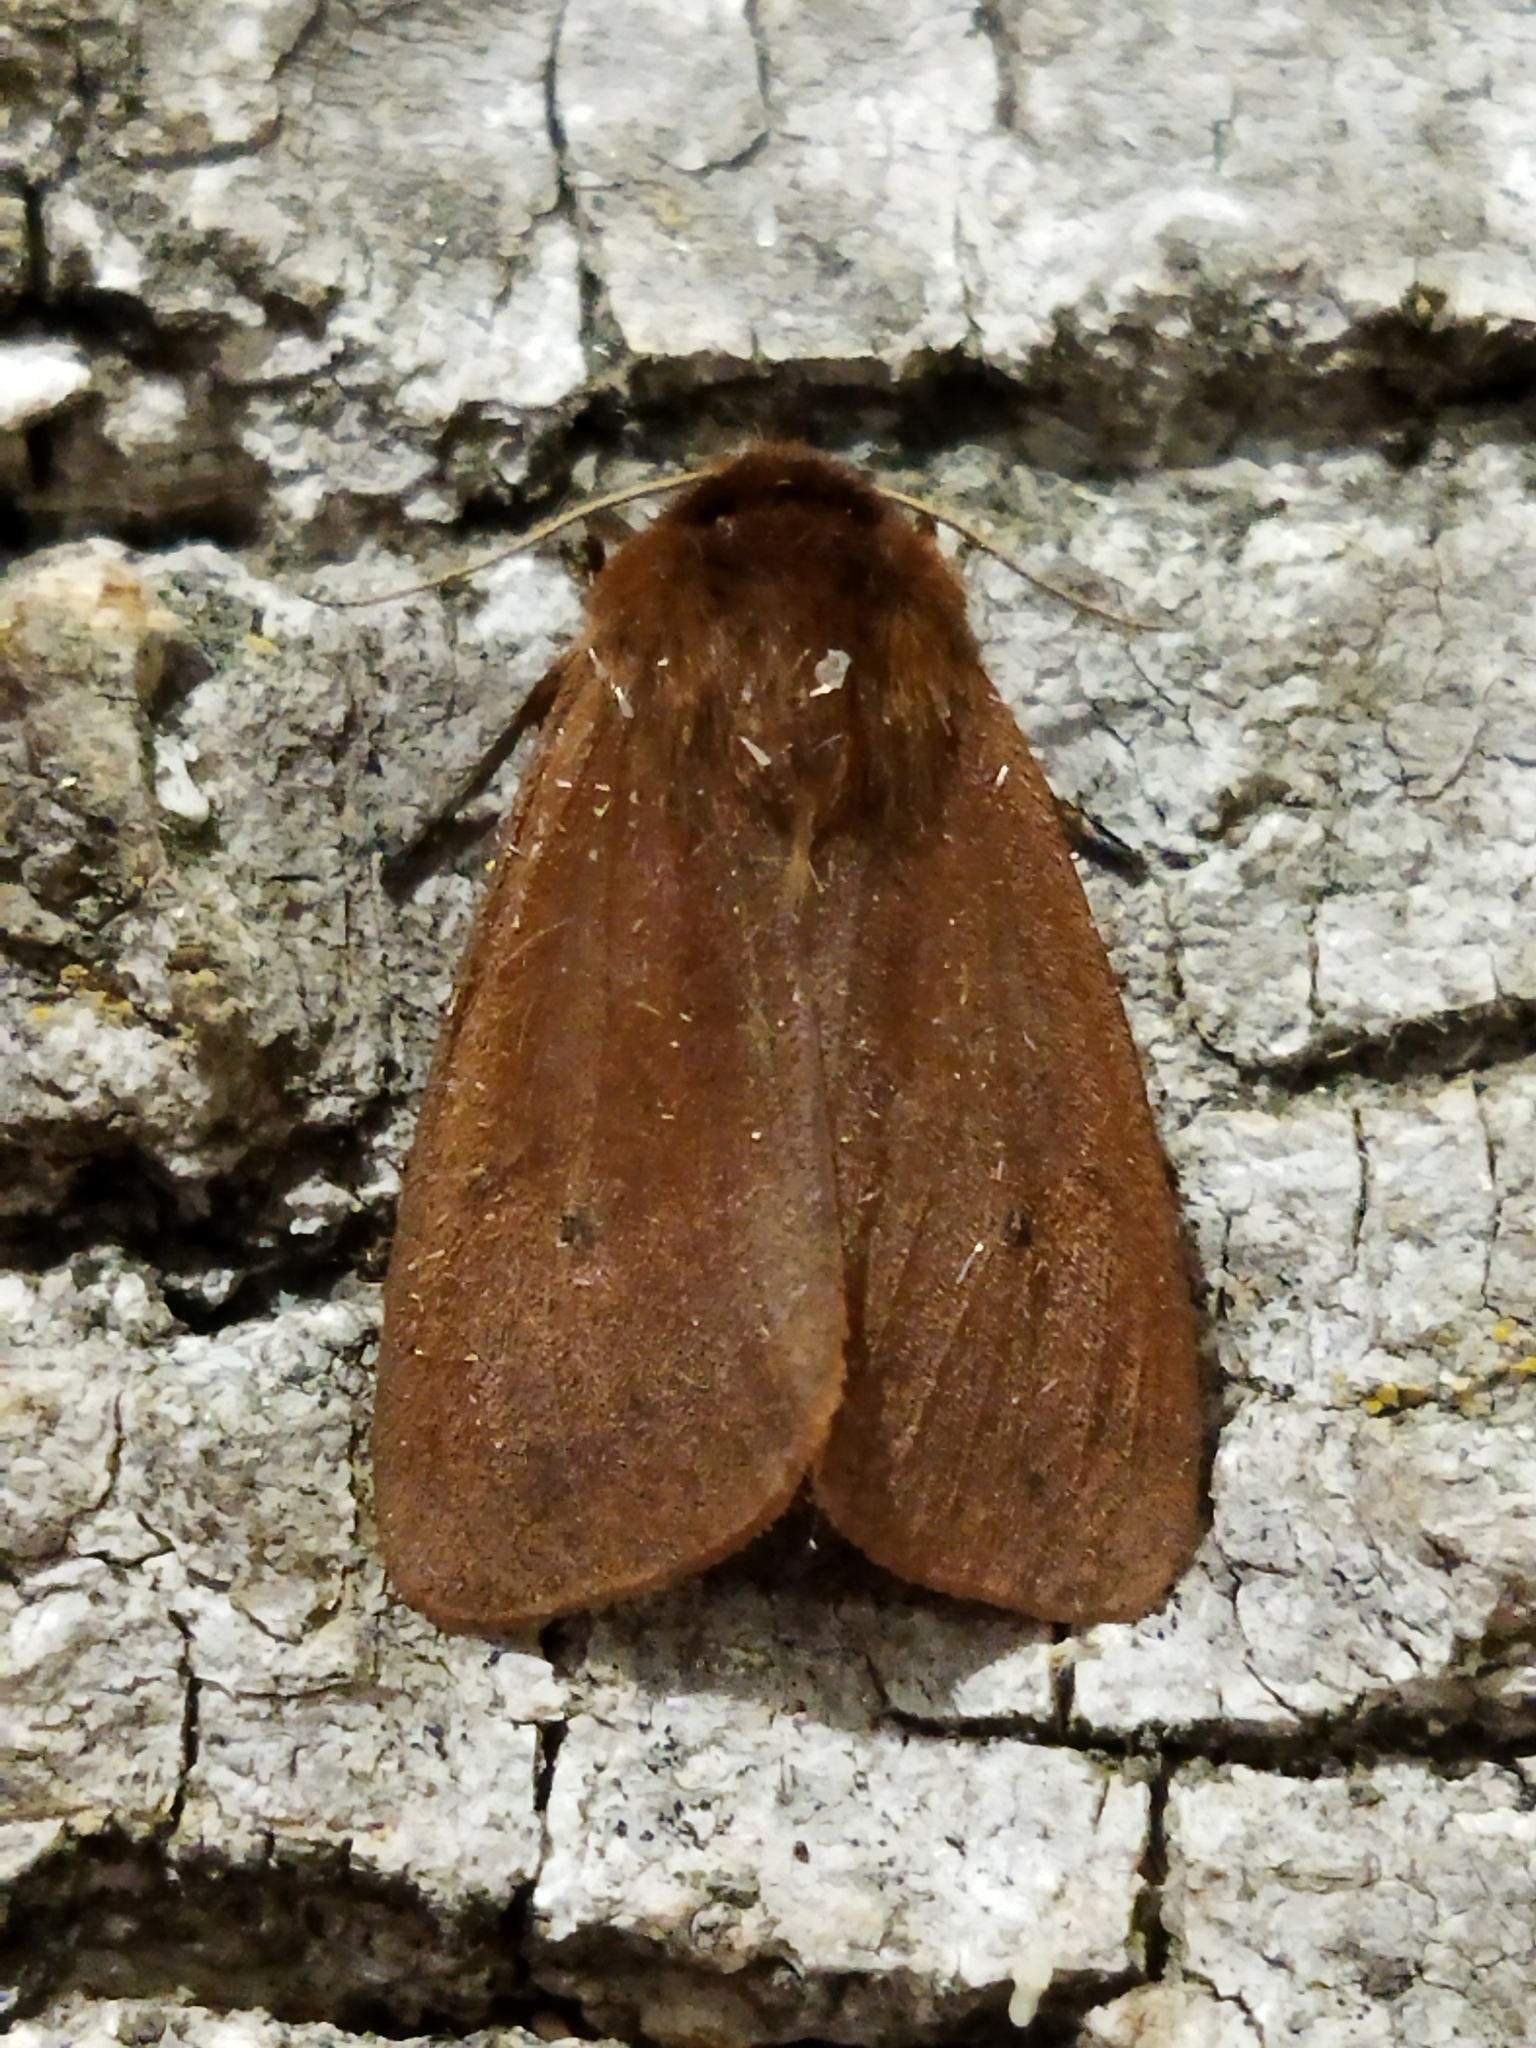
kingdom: Animalia
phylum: Arthropoda
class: Insecta
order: Lepidoptera
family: Erebidae
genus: Phragmatobia
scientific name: Phragmatobia fuliginosa
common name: Ruby tiger
